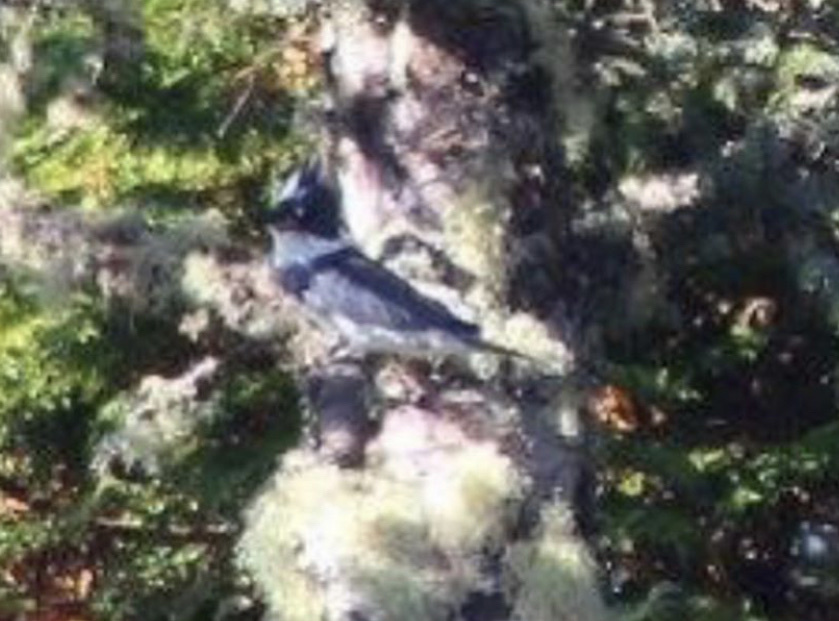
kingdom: Animalia
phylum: Chordata
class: Aves
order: Coraciiformes
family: Alcedinidae
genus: Megaceryle
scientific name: Megaceryle alcyon
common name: Belted kingfisher
